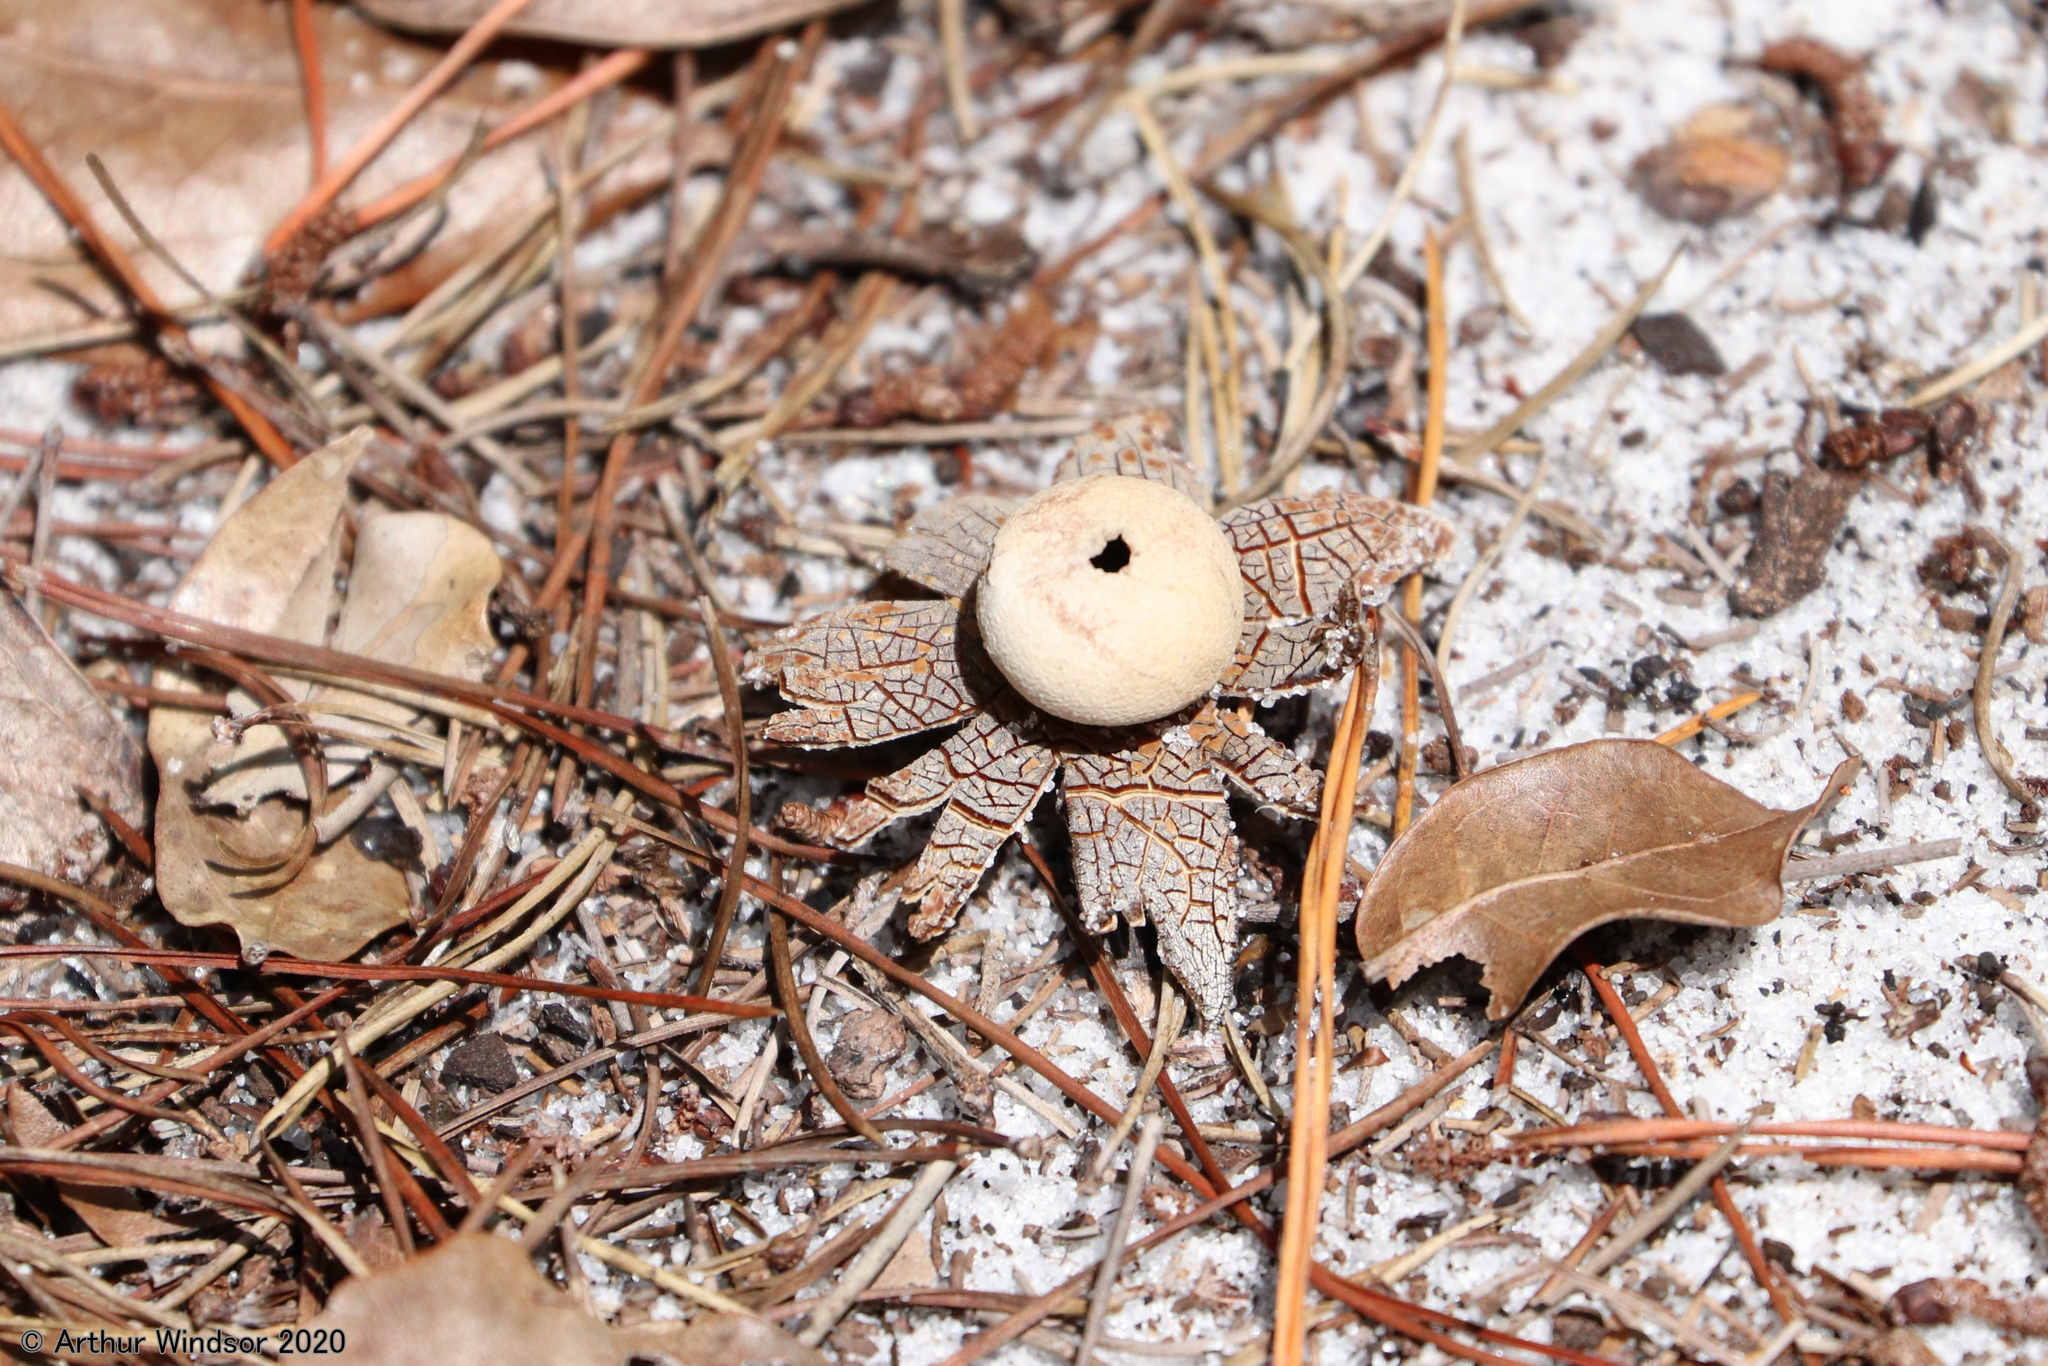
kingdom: Fungi
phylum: Basidiomycota
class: Agaricomycetes
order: Boletales
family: Diplocystidiaceae
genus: Astraeus
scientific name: Astraeus hygrometricus
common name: Barometer earthstar
